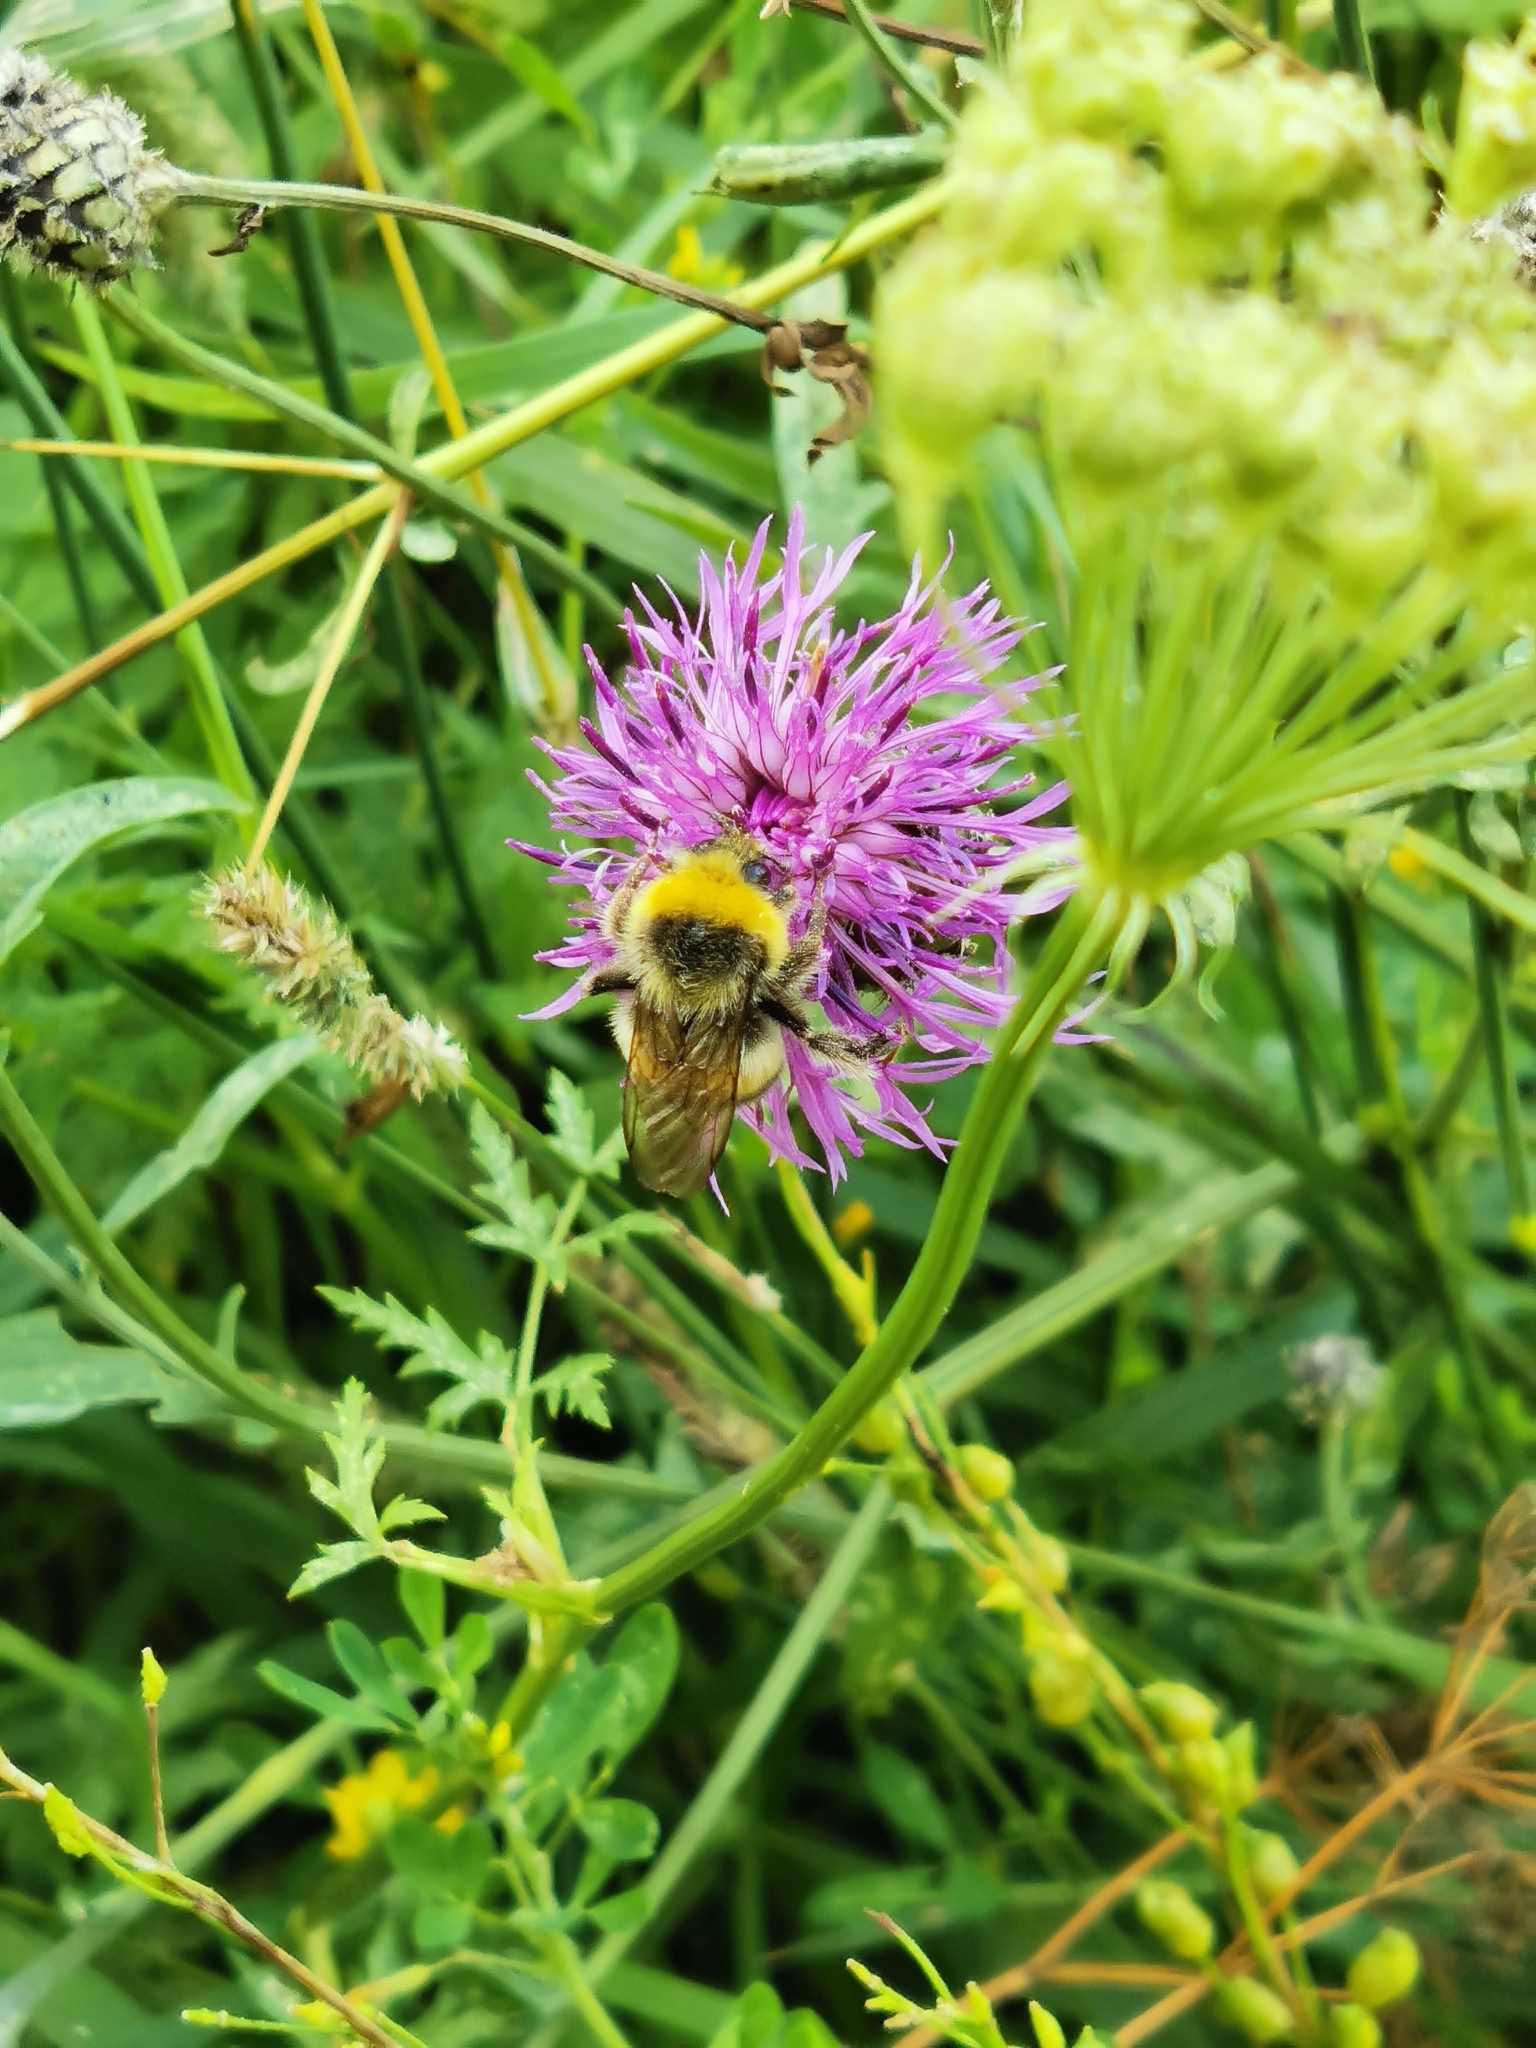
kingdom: Animalia
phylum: Arthropoda
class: Insecta
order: Hymenoptera
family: Apidae
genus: Bombus
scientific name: Bombus lucorum
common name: White-tailed bumblebee
